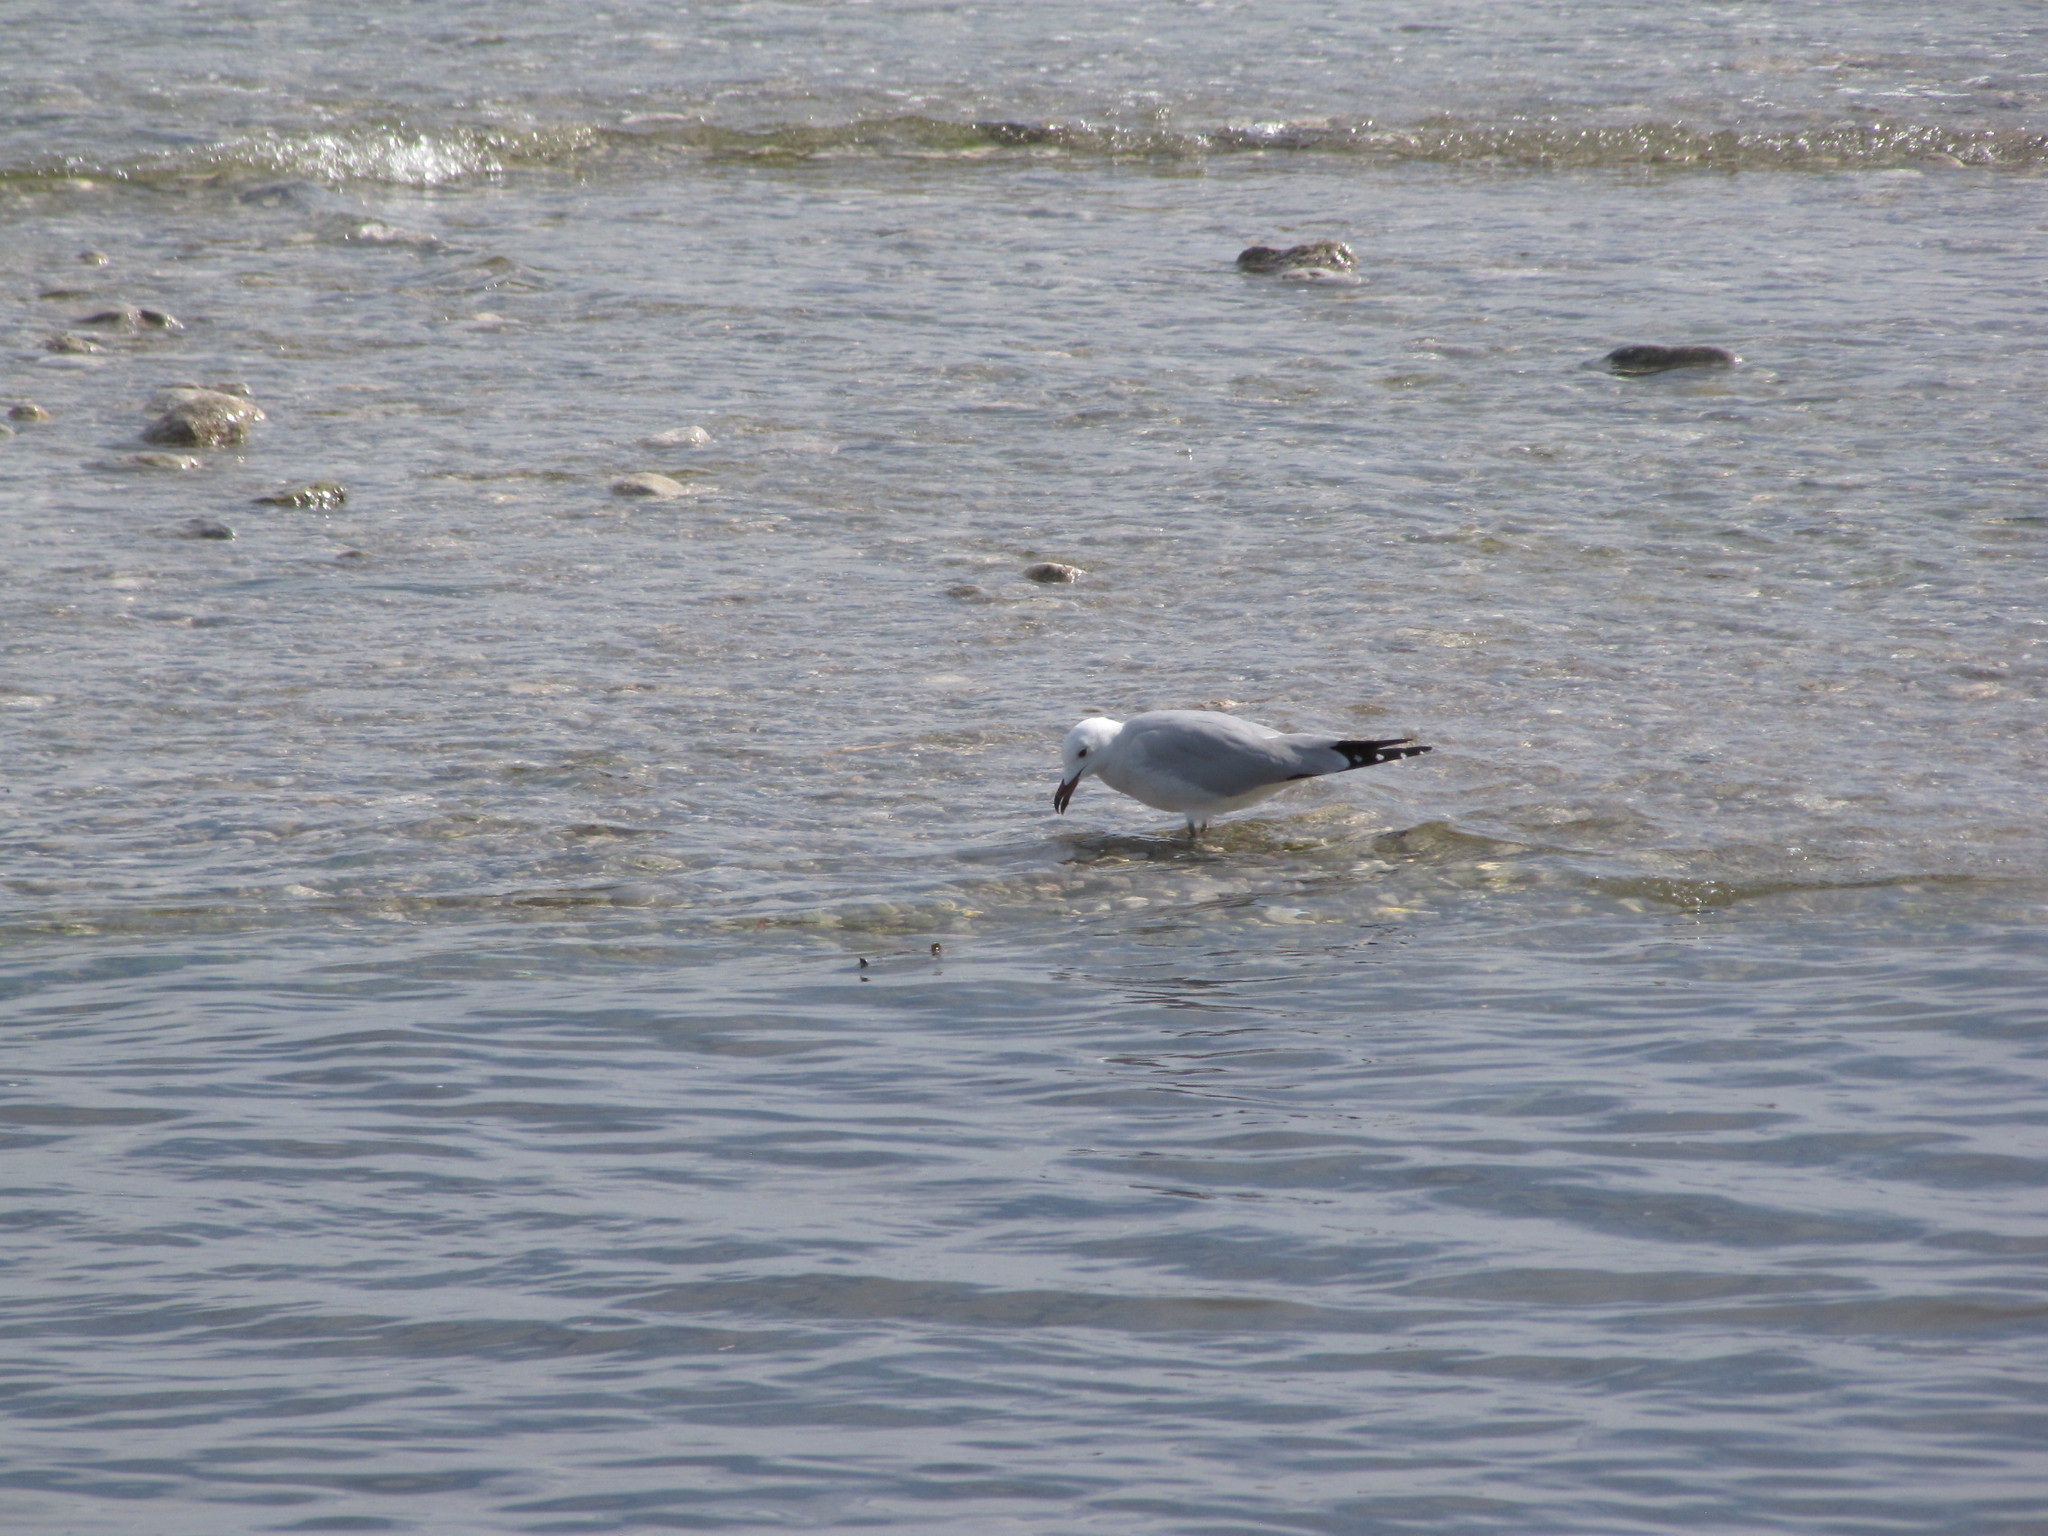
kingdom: Animalia
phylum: Chordata
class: Aves
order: Charadriiformes
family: Laridae
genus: Ichthyaetus
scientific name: Ichthyaetus audouinii
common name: Audouin's gull
